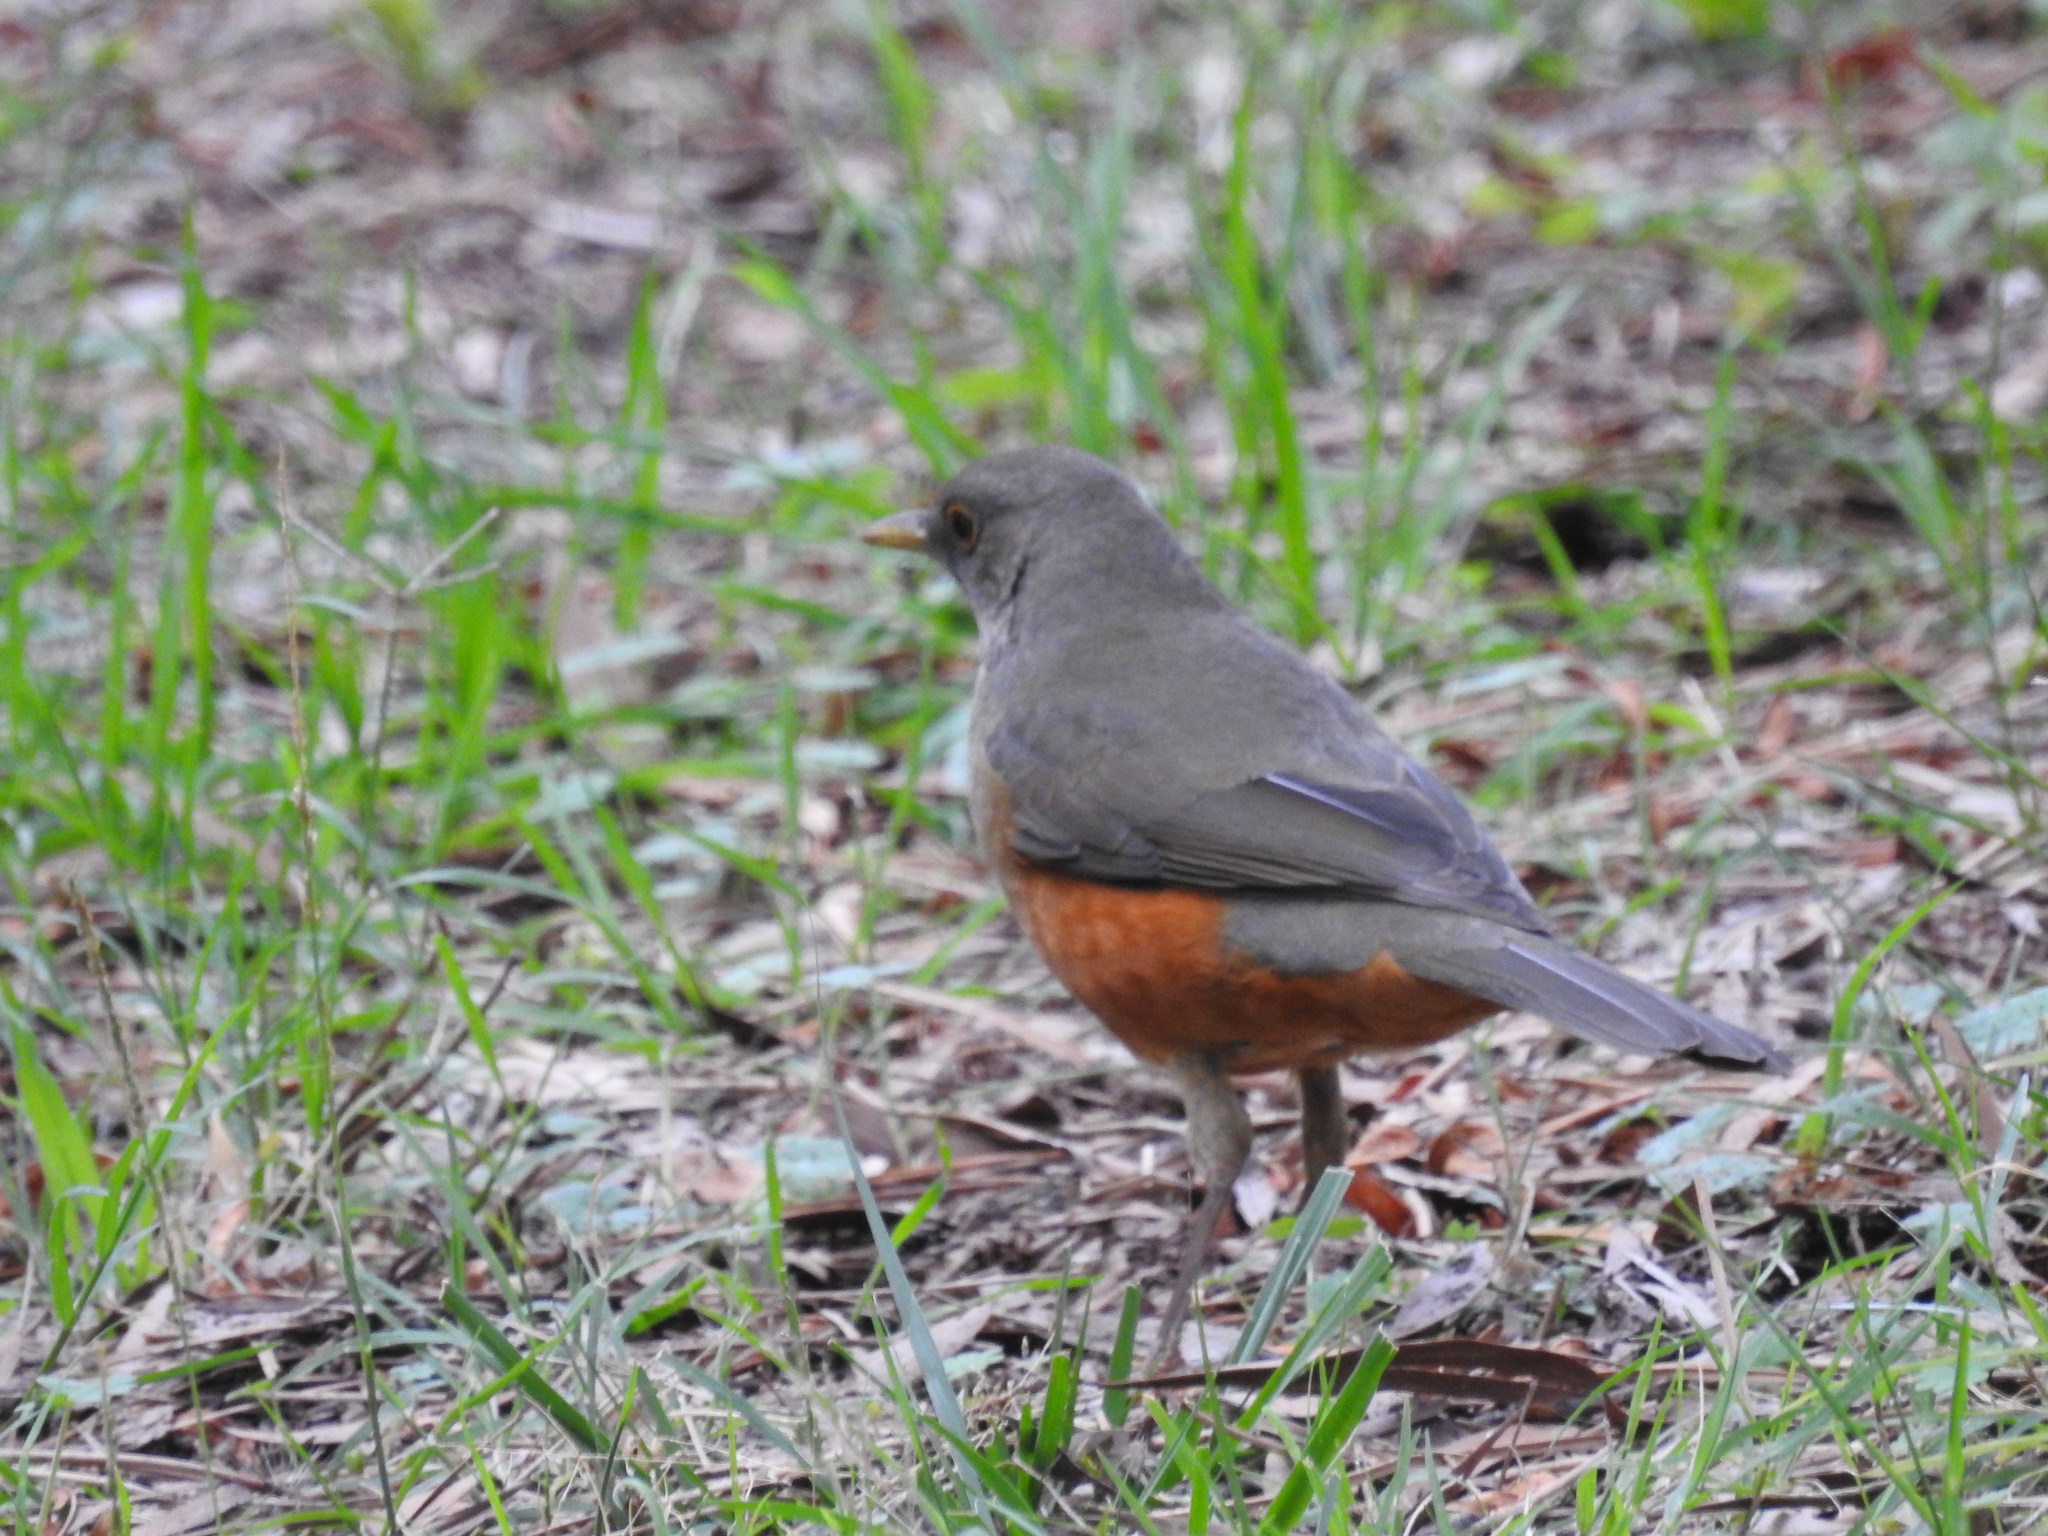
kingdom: Animalia
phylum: Chordata
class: Aves
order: Passeriformes
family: Turdidae
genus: Turdus
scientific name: Turdus rufiventris
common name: Rufous-bellied thrush
